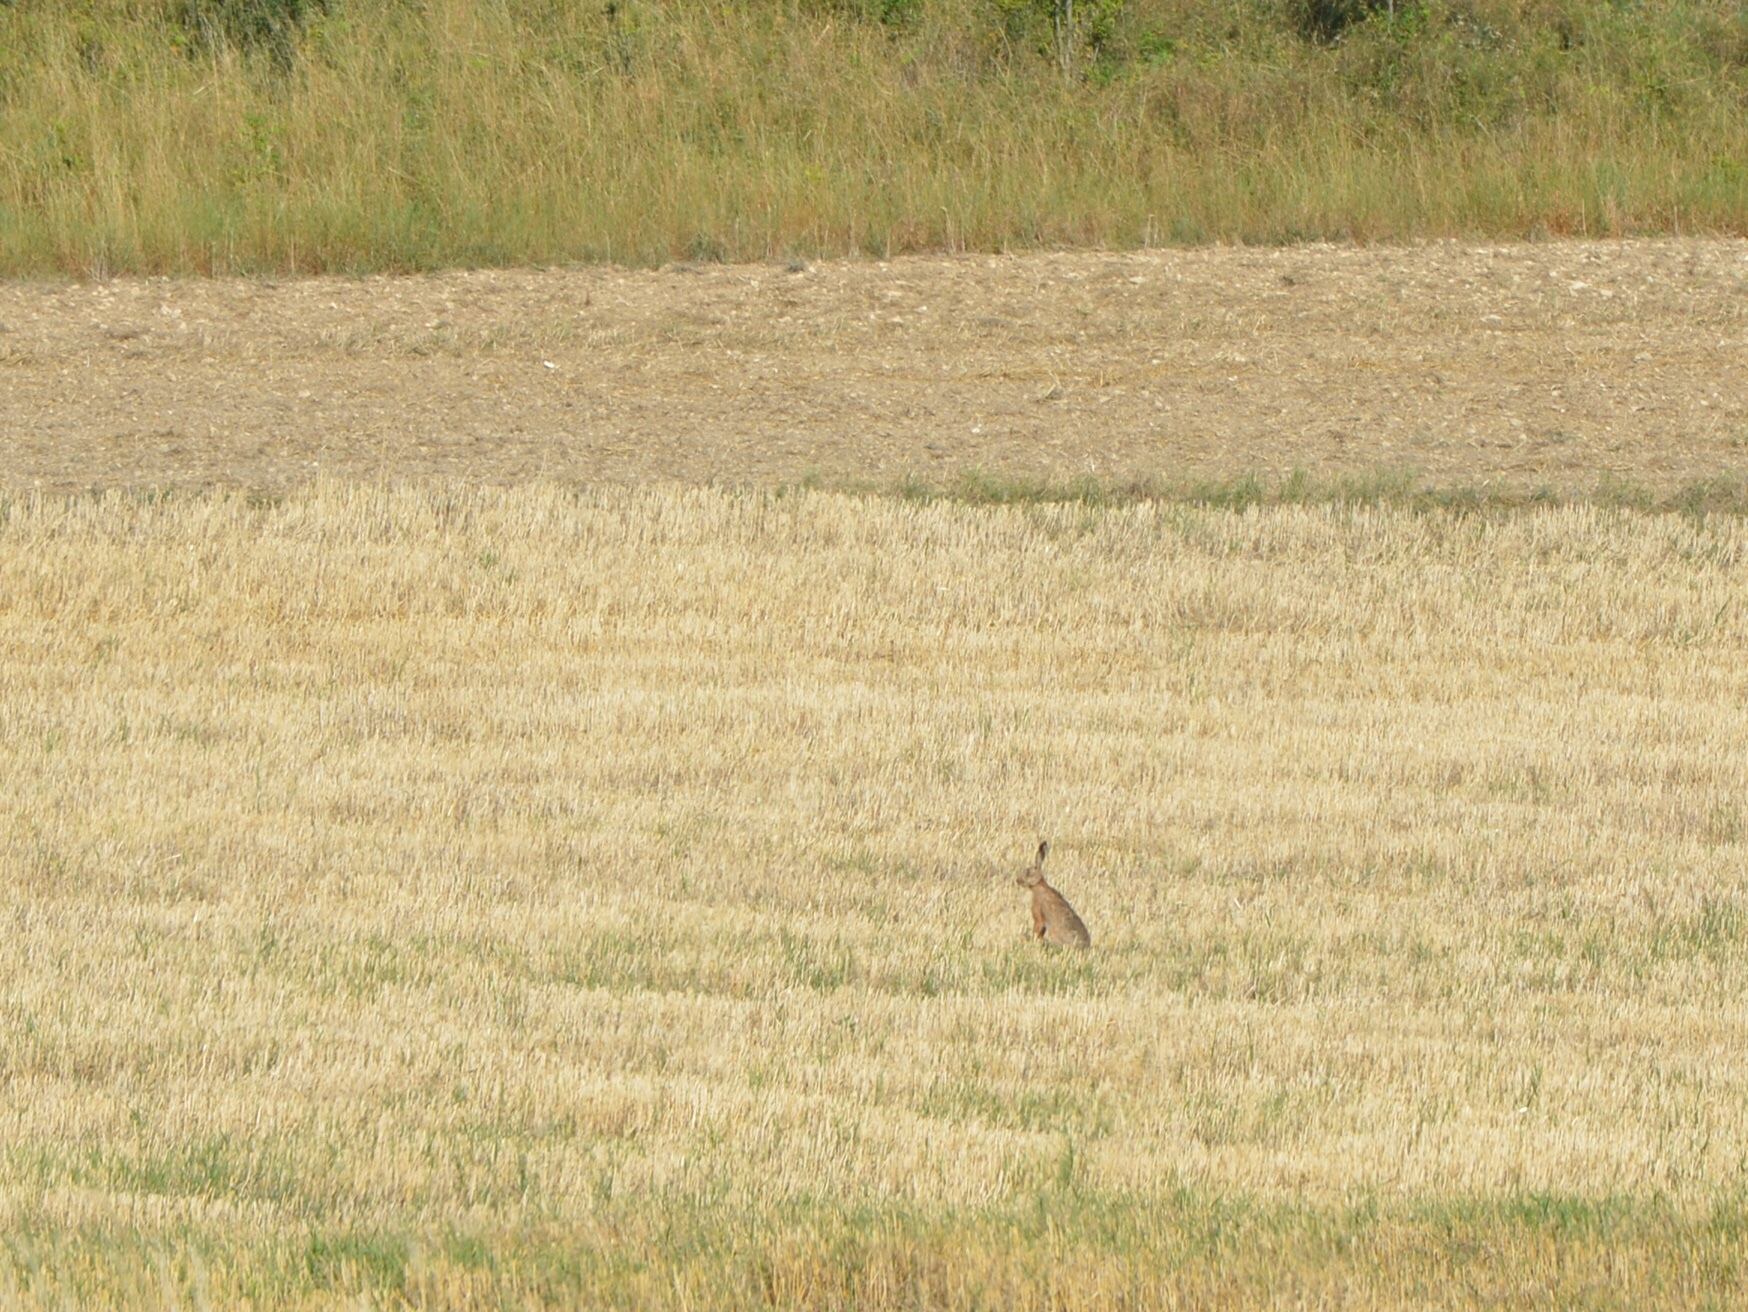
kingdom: Animalia
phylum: Chordata
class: Mammalia
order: Lagomorpha
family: Leporidae
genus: Lepus
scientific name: Lepus europaeus
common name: European hare
